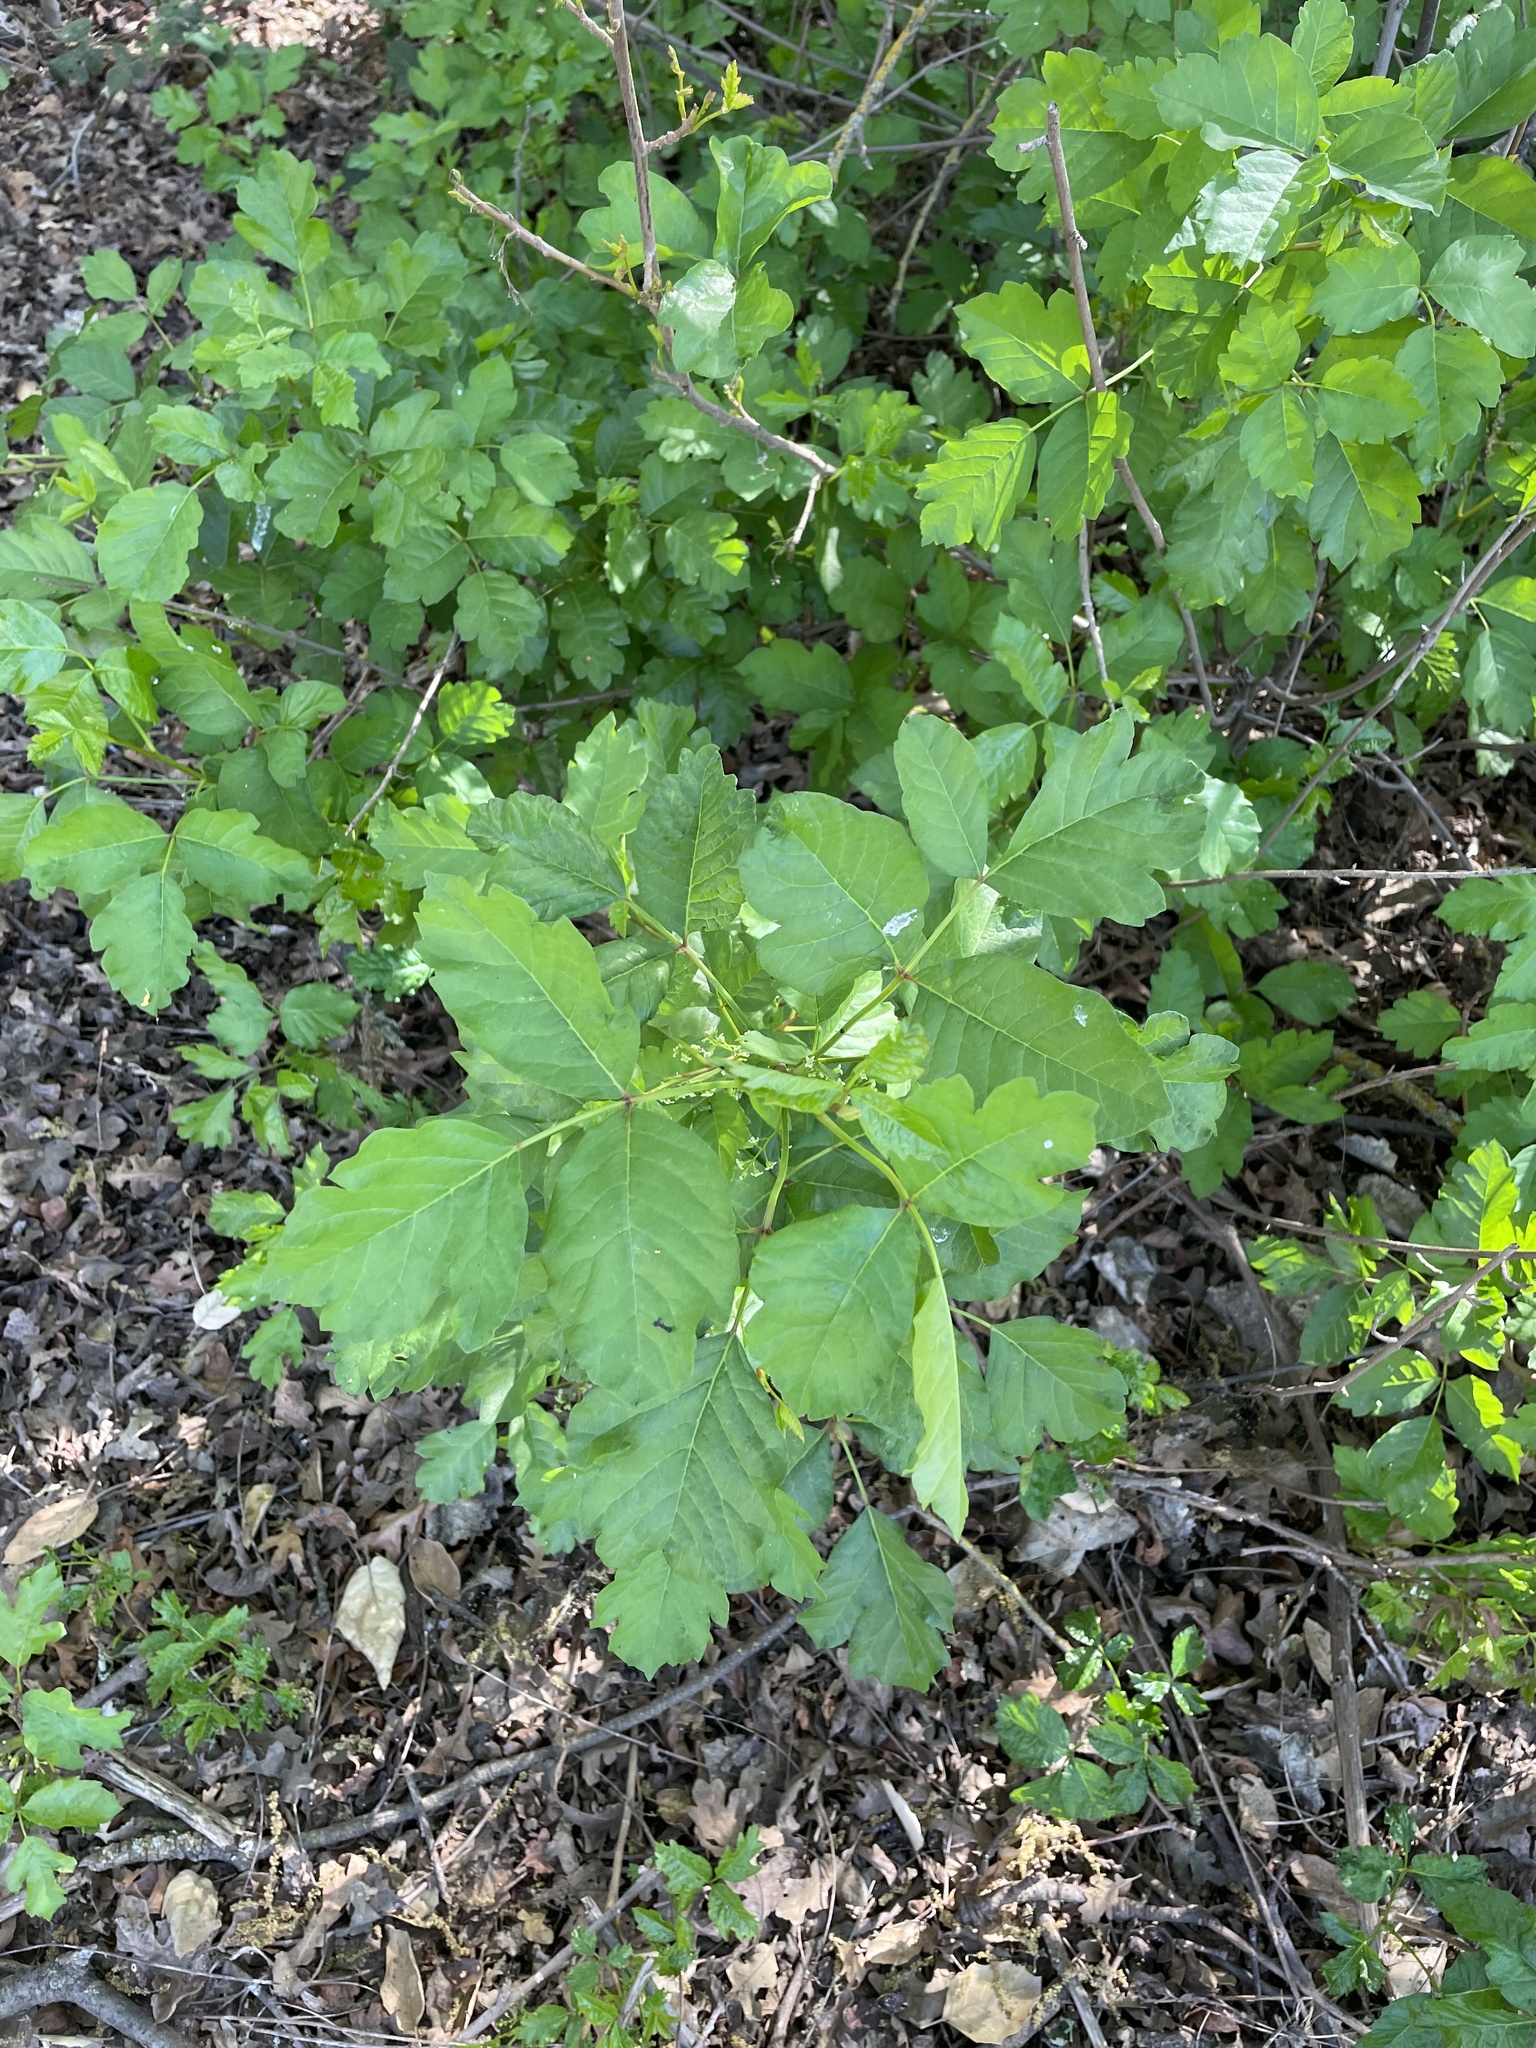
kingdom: Plantae
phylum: Tracheophyta
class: Magnoliopsida
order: Sapindales
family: Anacardiaceae
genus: Toxicodendron
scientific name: Toxicodendron diversilobum
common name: Pacific poison-oak
